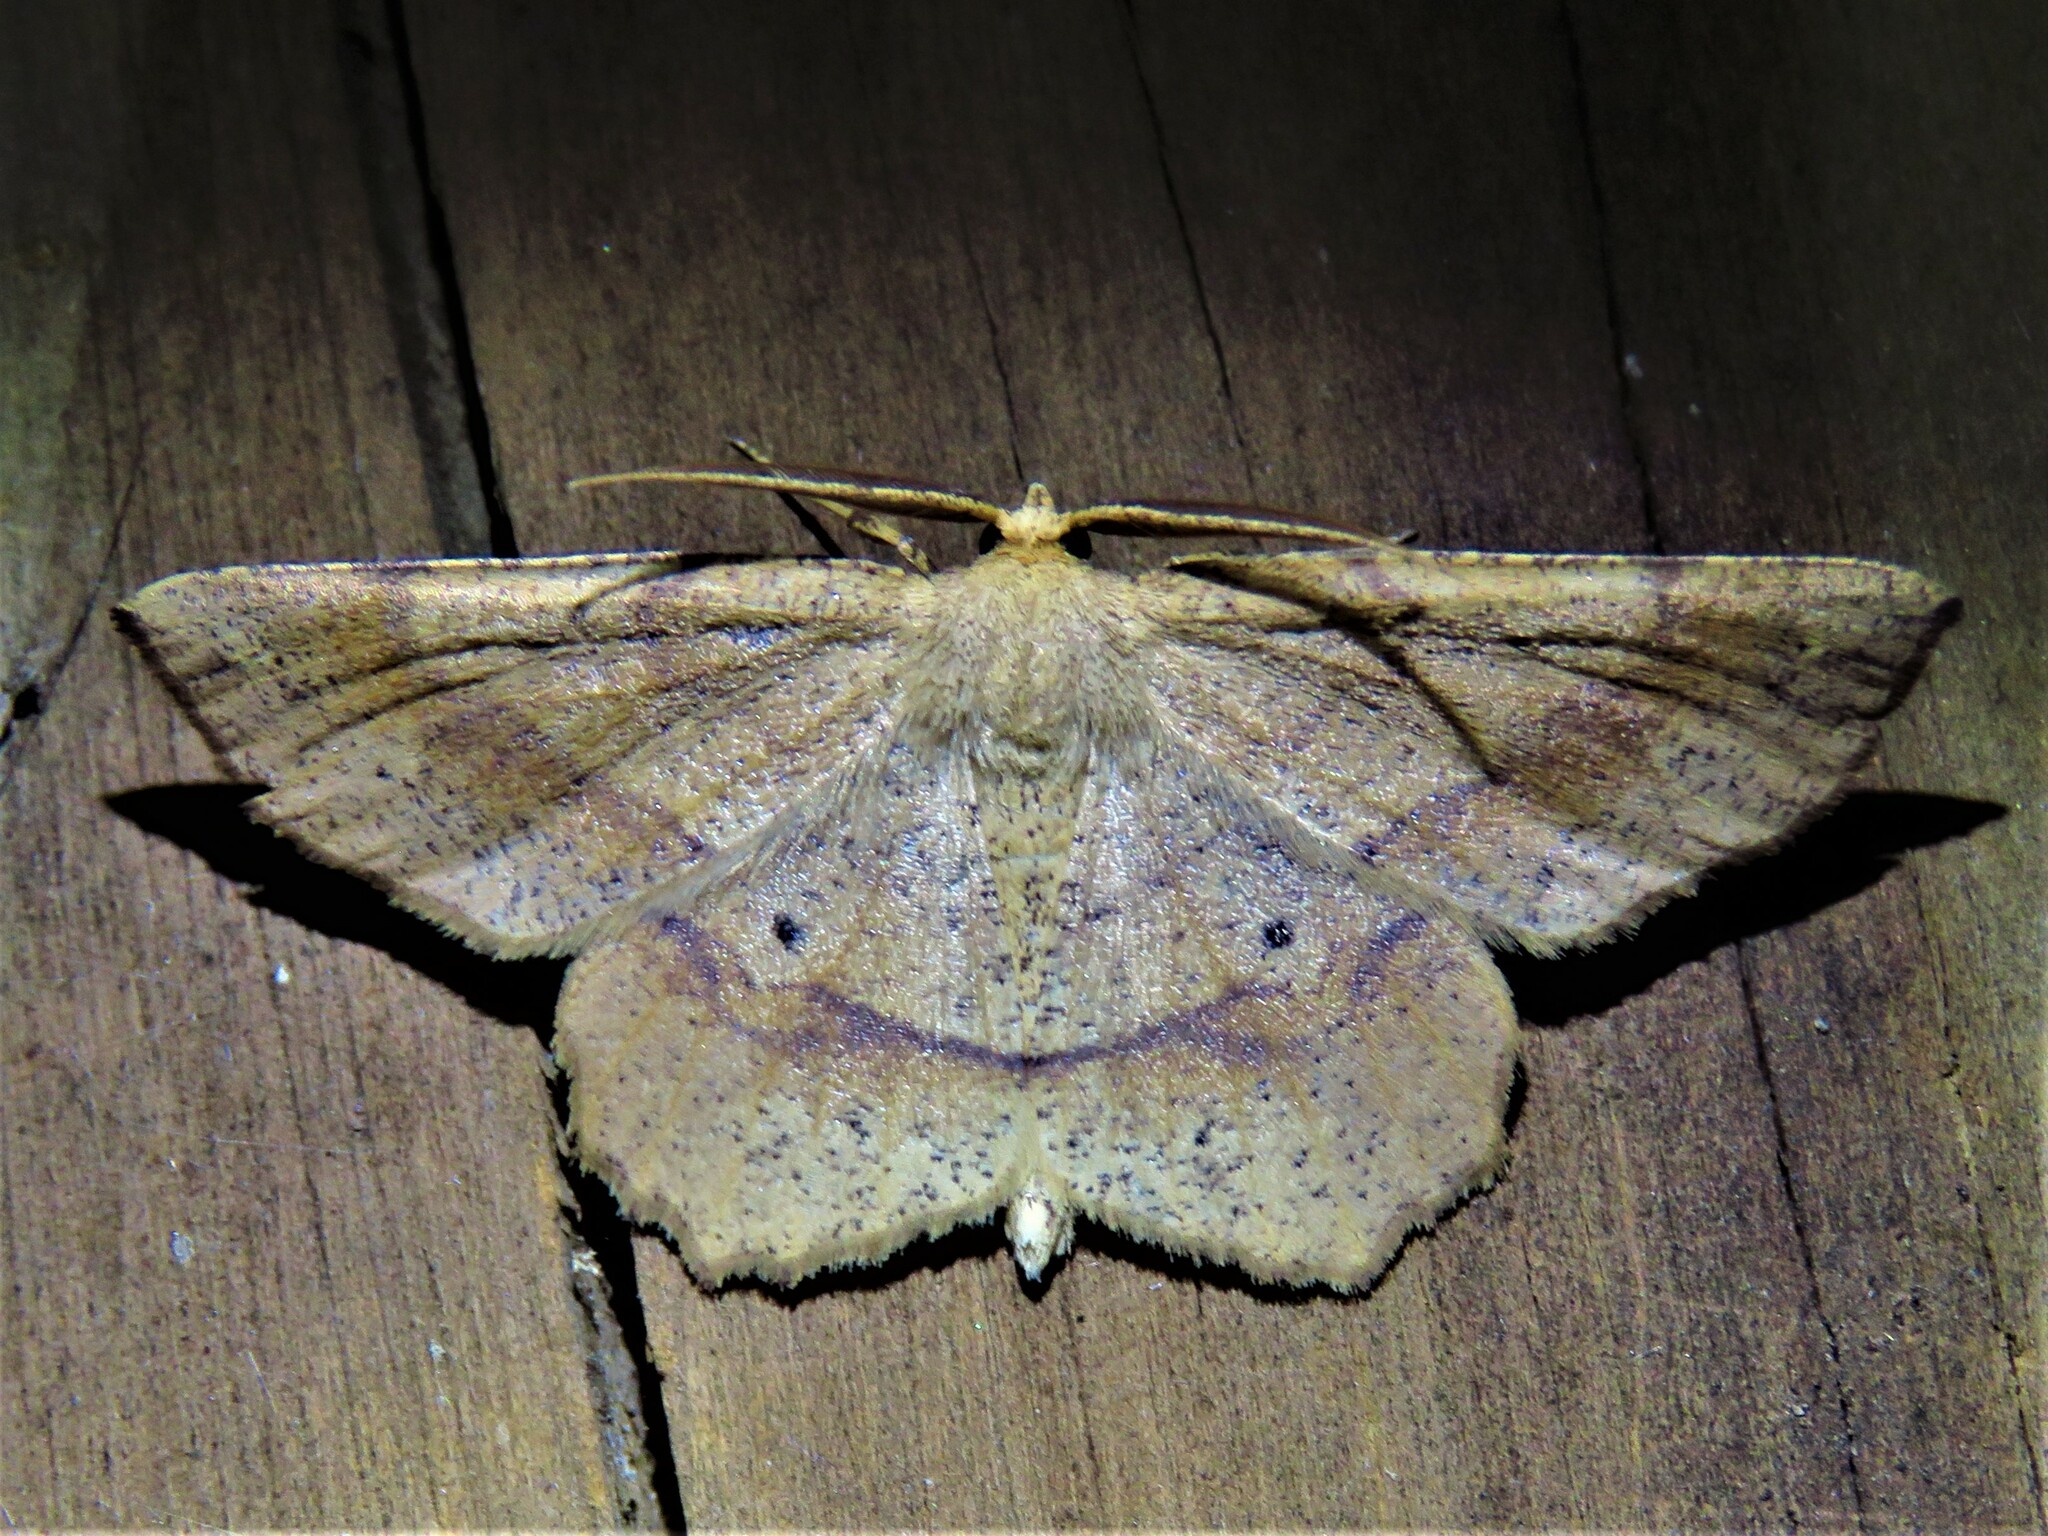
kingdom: Animalia
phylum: Arthropoda
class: Insecta
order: Lepidoptera
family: Geometridae
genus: Euchlaena
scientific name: Euchlaena marginaria
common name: Ochre euchlaena moth
